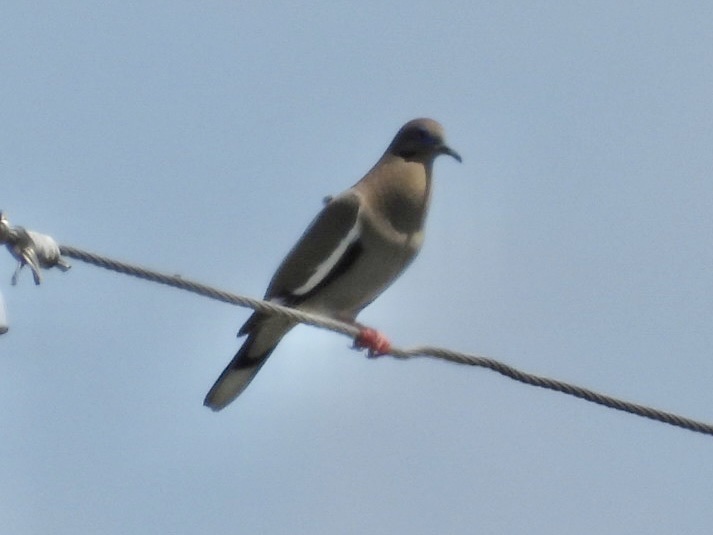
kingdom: Animalia
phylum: Chordata
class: Aves
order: Columbiformes
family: Columbidae
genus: Zenaida
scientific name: Zenaida asiatica
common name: White-winged dove
